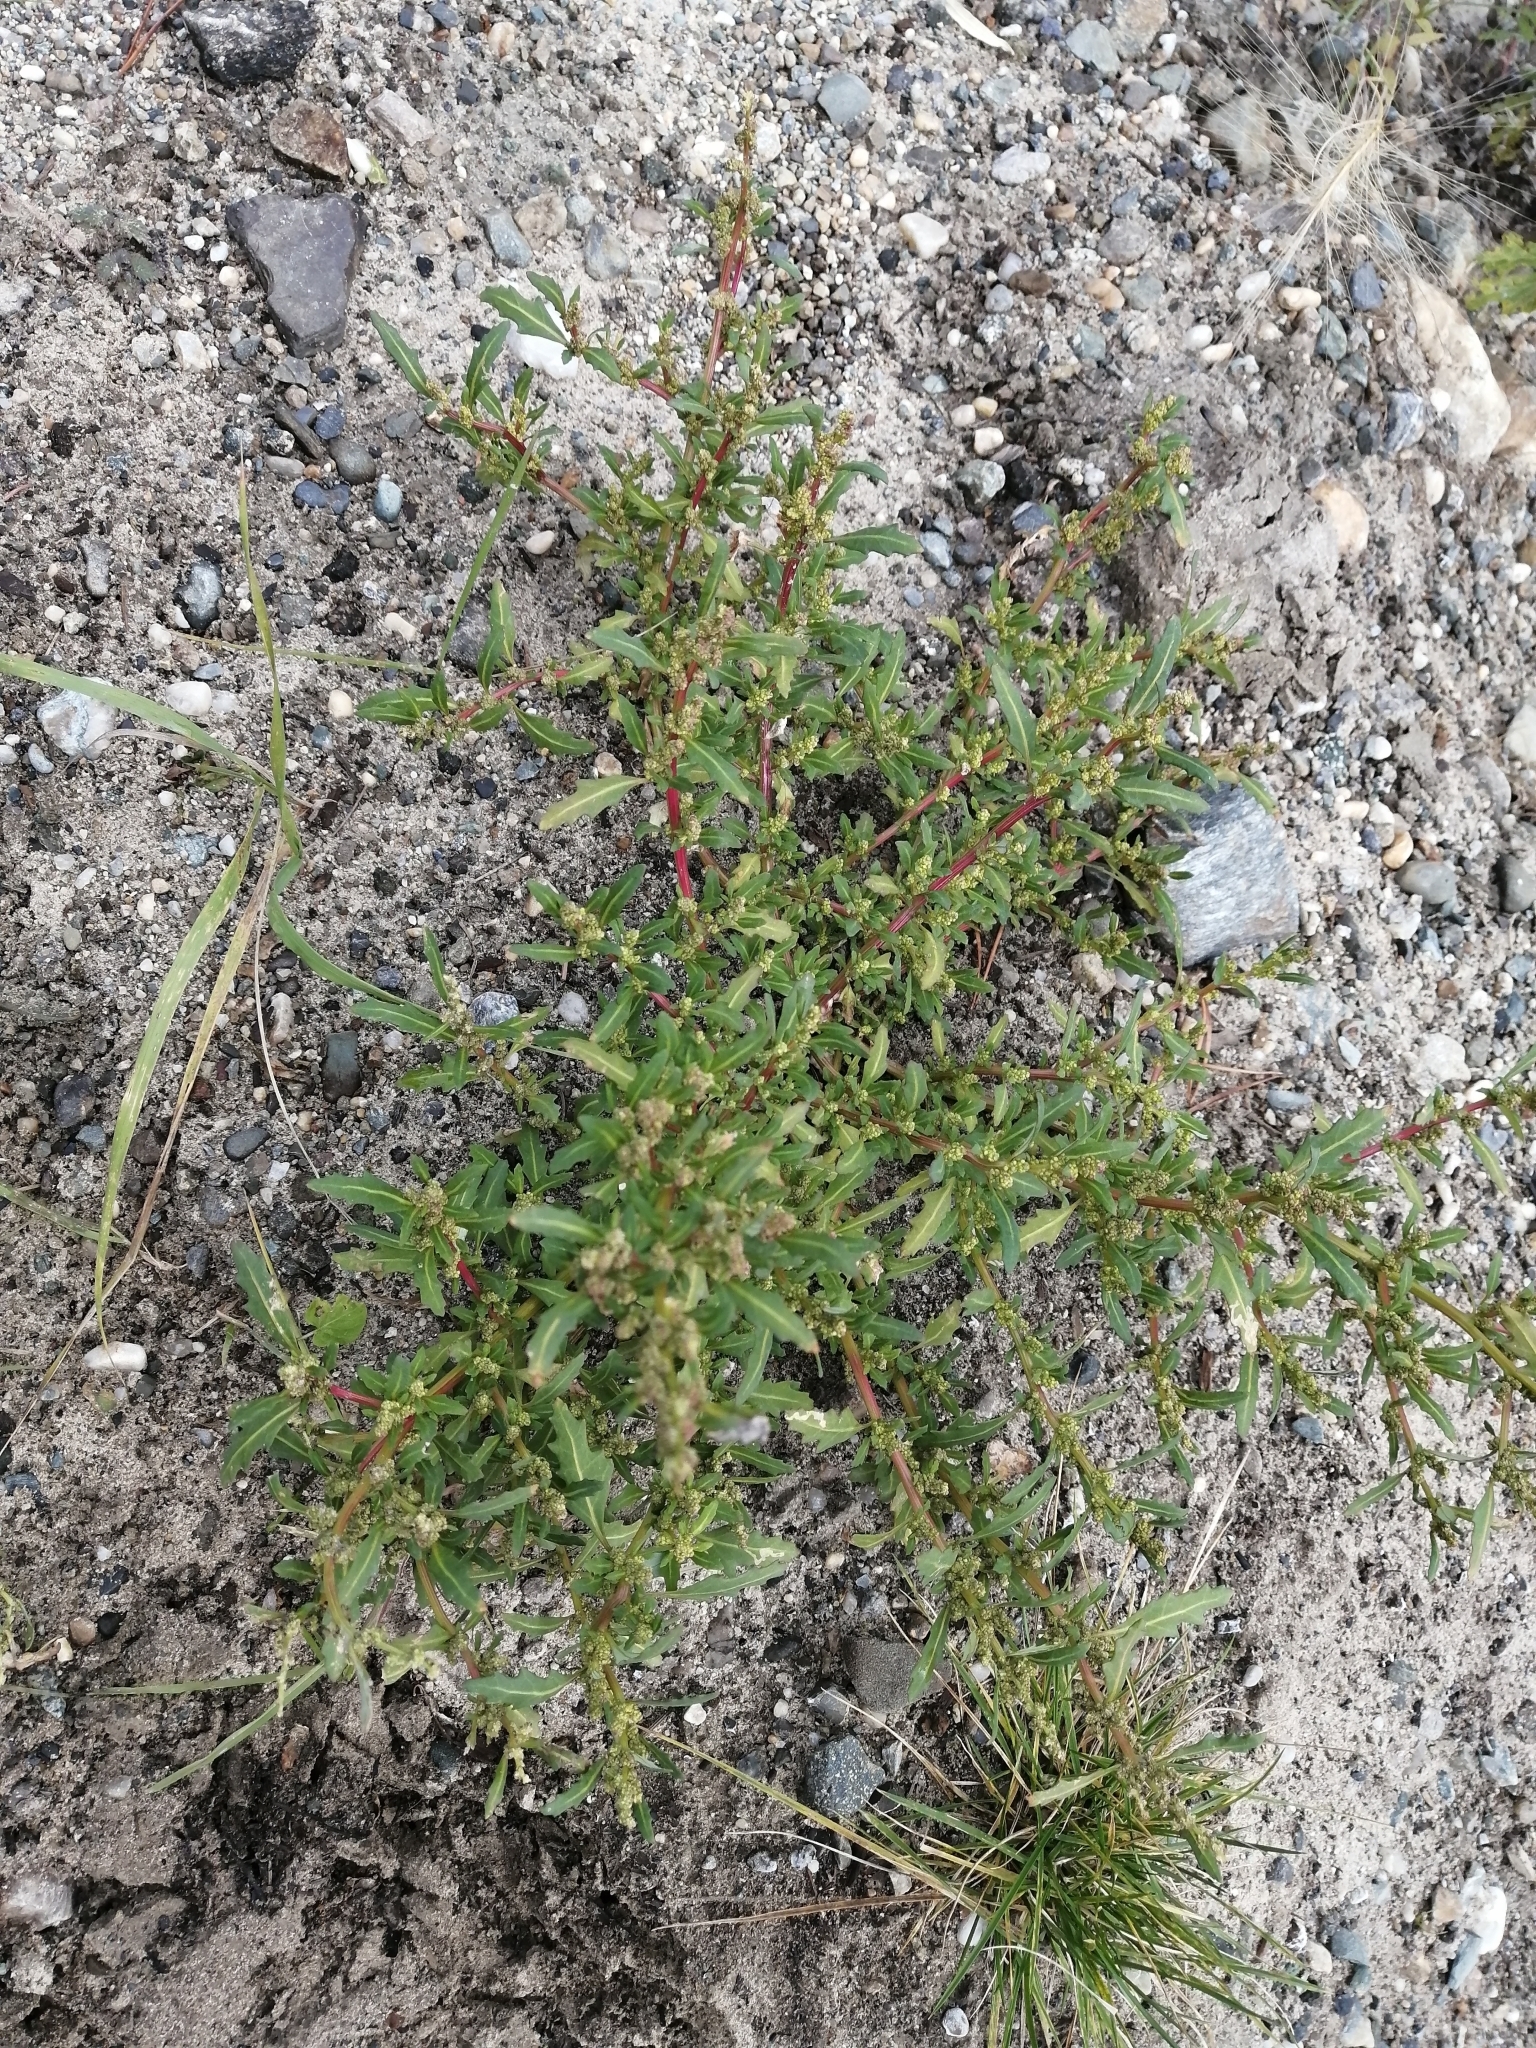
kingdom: Plantae
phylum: Tracheophyta
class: Magnoliopsida
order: Caryophyllales
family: Amaranthaceae
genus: Oxybasis
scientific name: Oxybasis glauca
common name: Glaucous goosefoot
